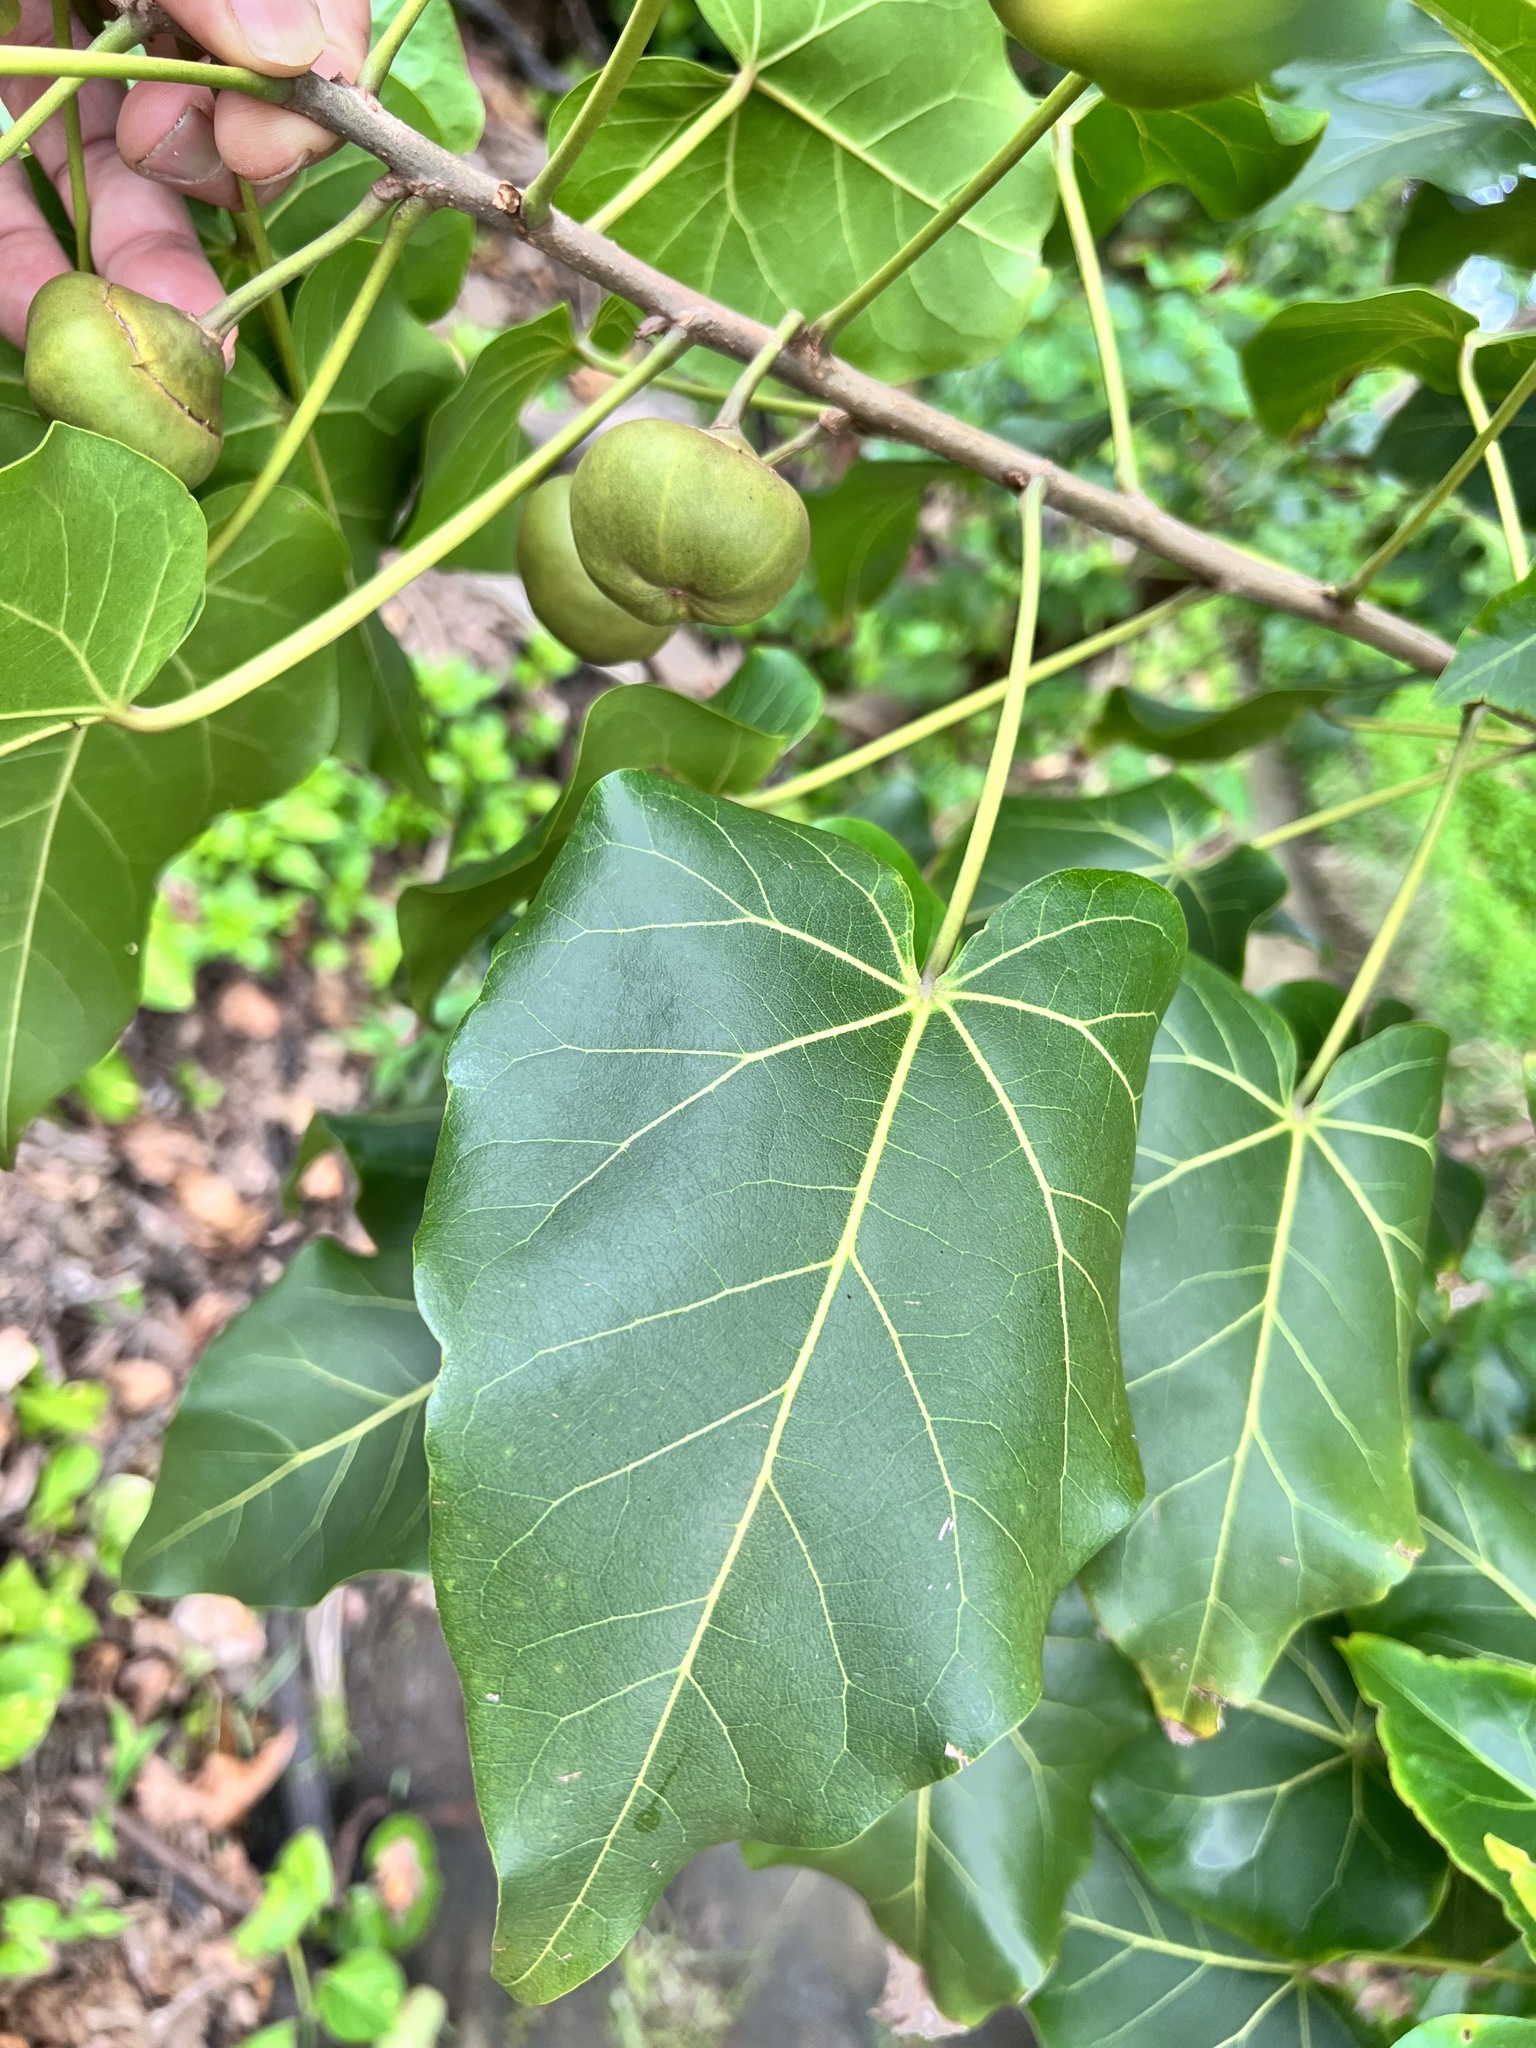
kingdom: Plantae
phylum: Tracheophyta
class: Magnoliopsida
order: Malvales
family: Malvaceae
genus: Thespesia
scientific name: Thespesia populnea
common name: Seaside mahoe
